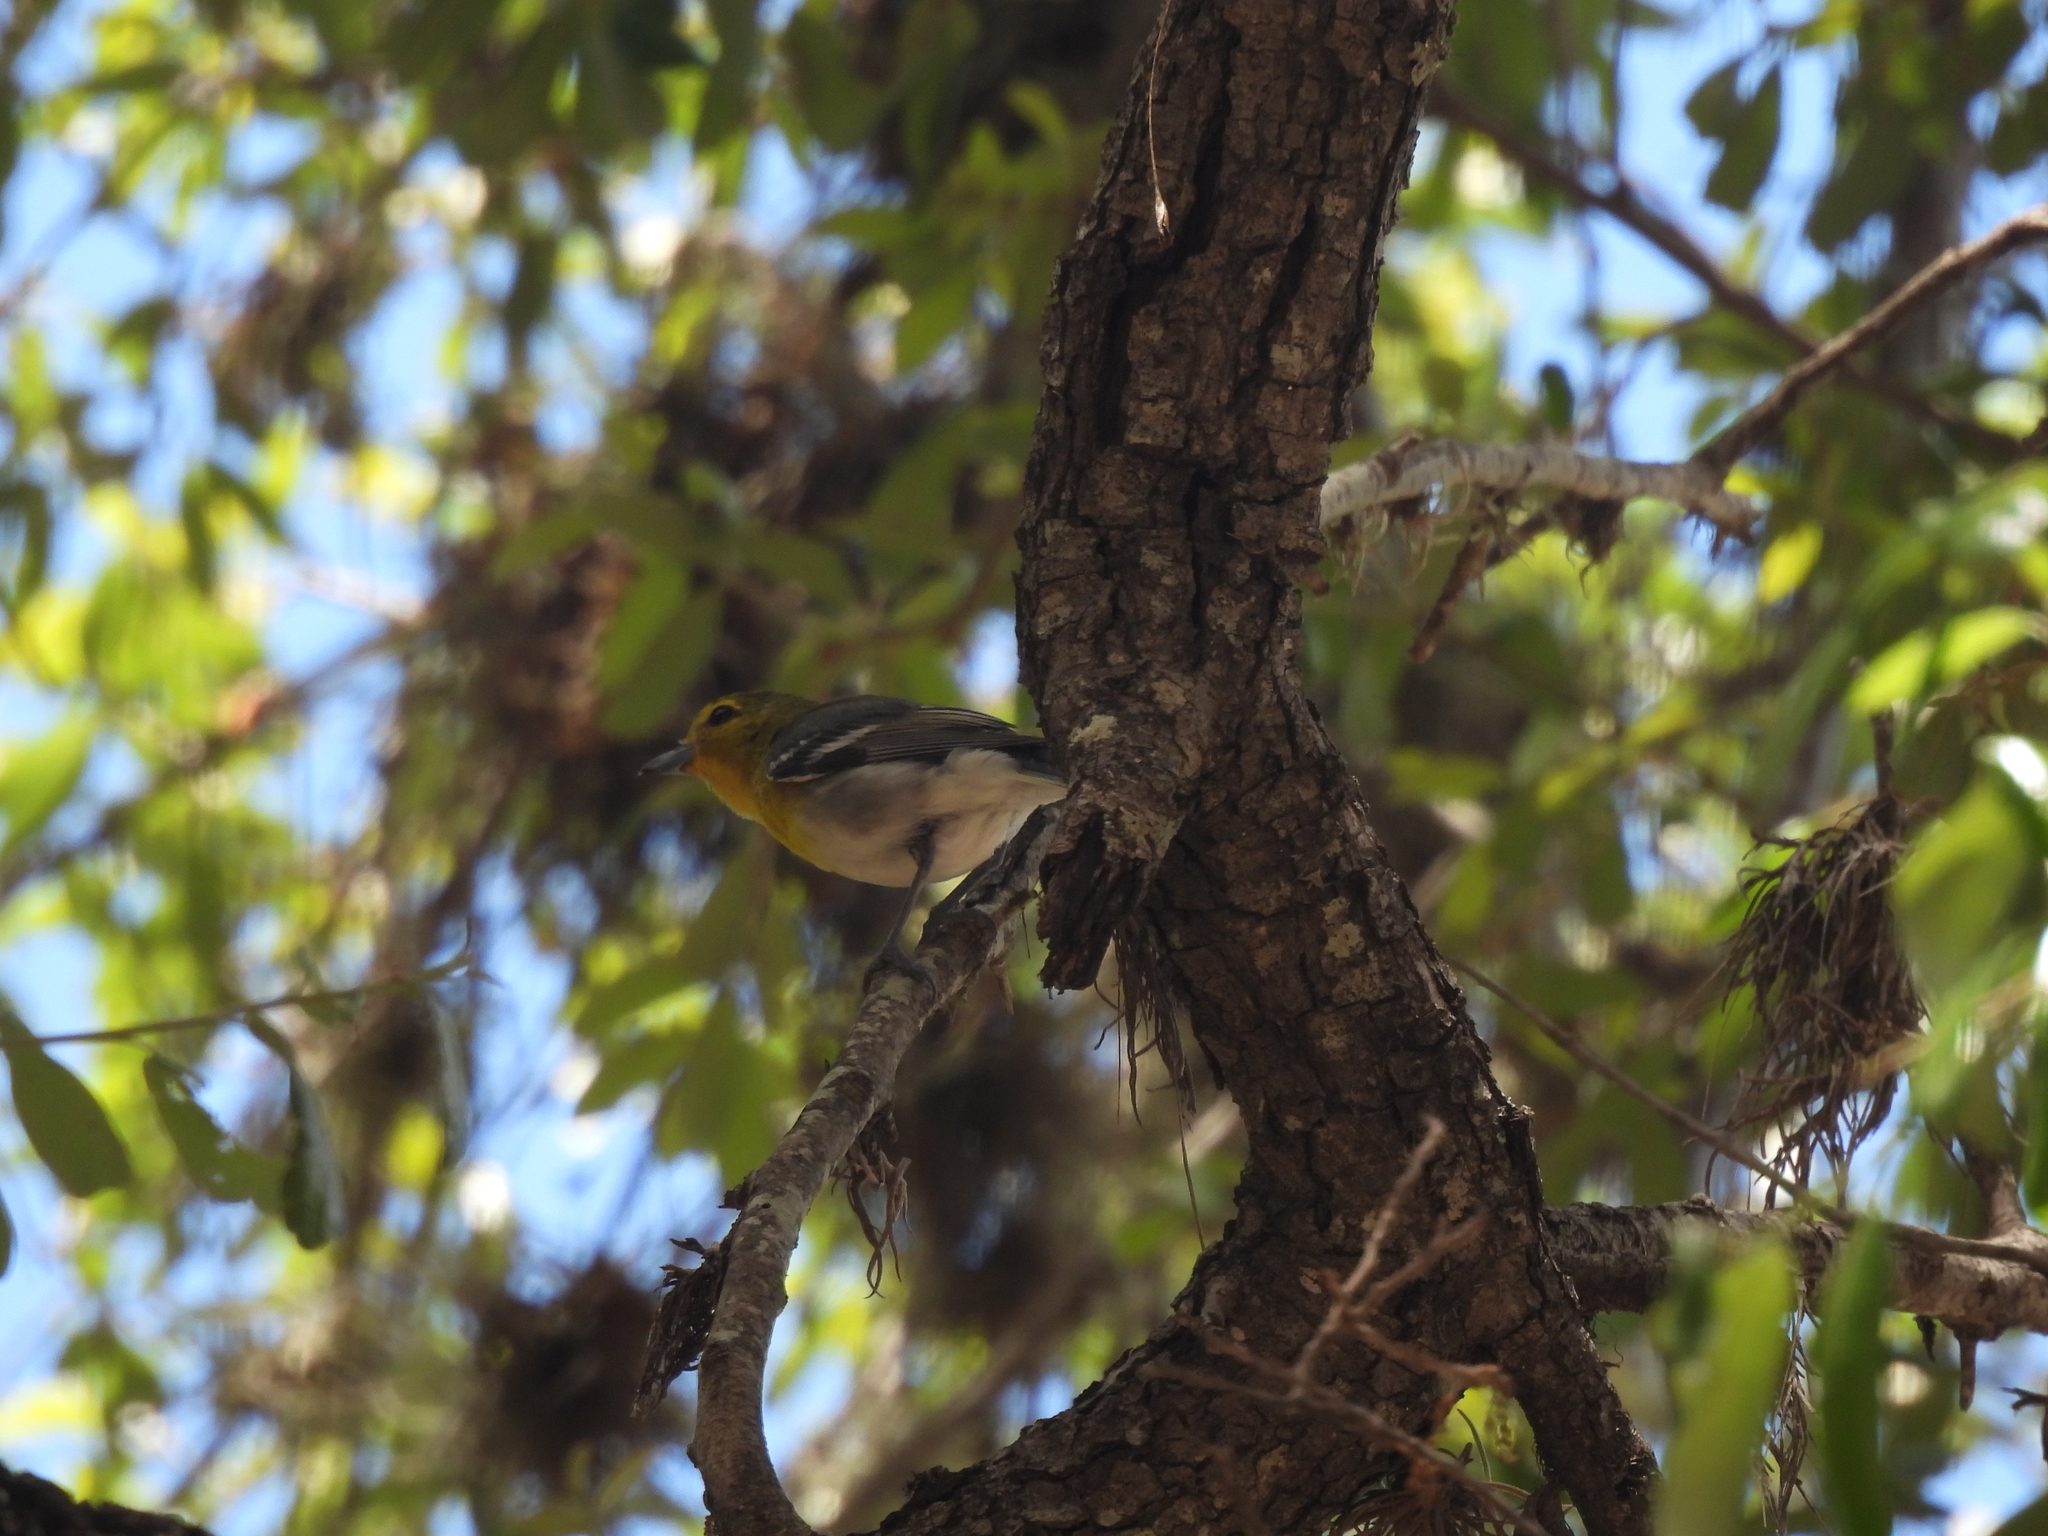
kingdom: Animalia
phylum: Chordata
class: Aves
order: Passeriformes
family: Vireonidae
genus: Vireo
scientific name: Vireo flavifrons
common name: Yellow-throated vireo
